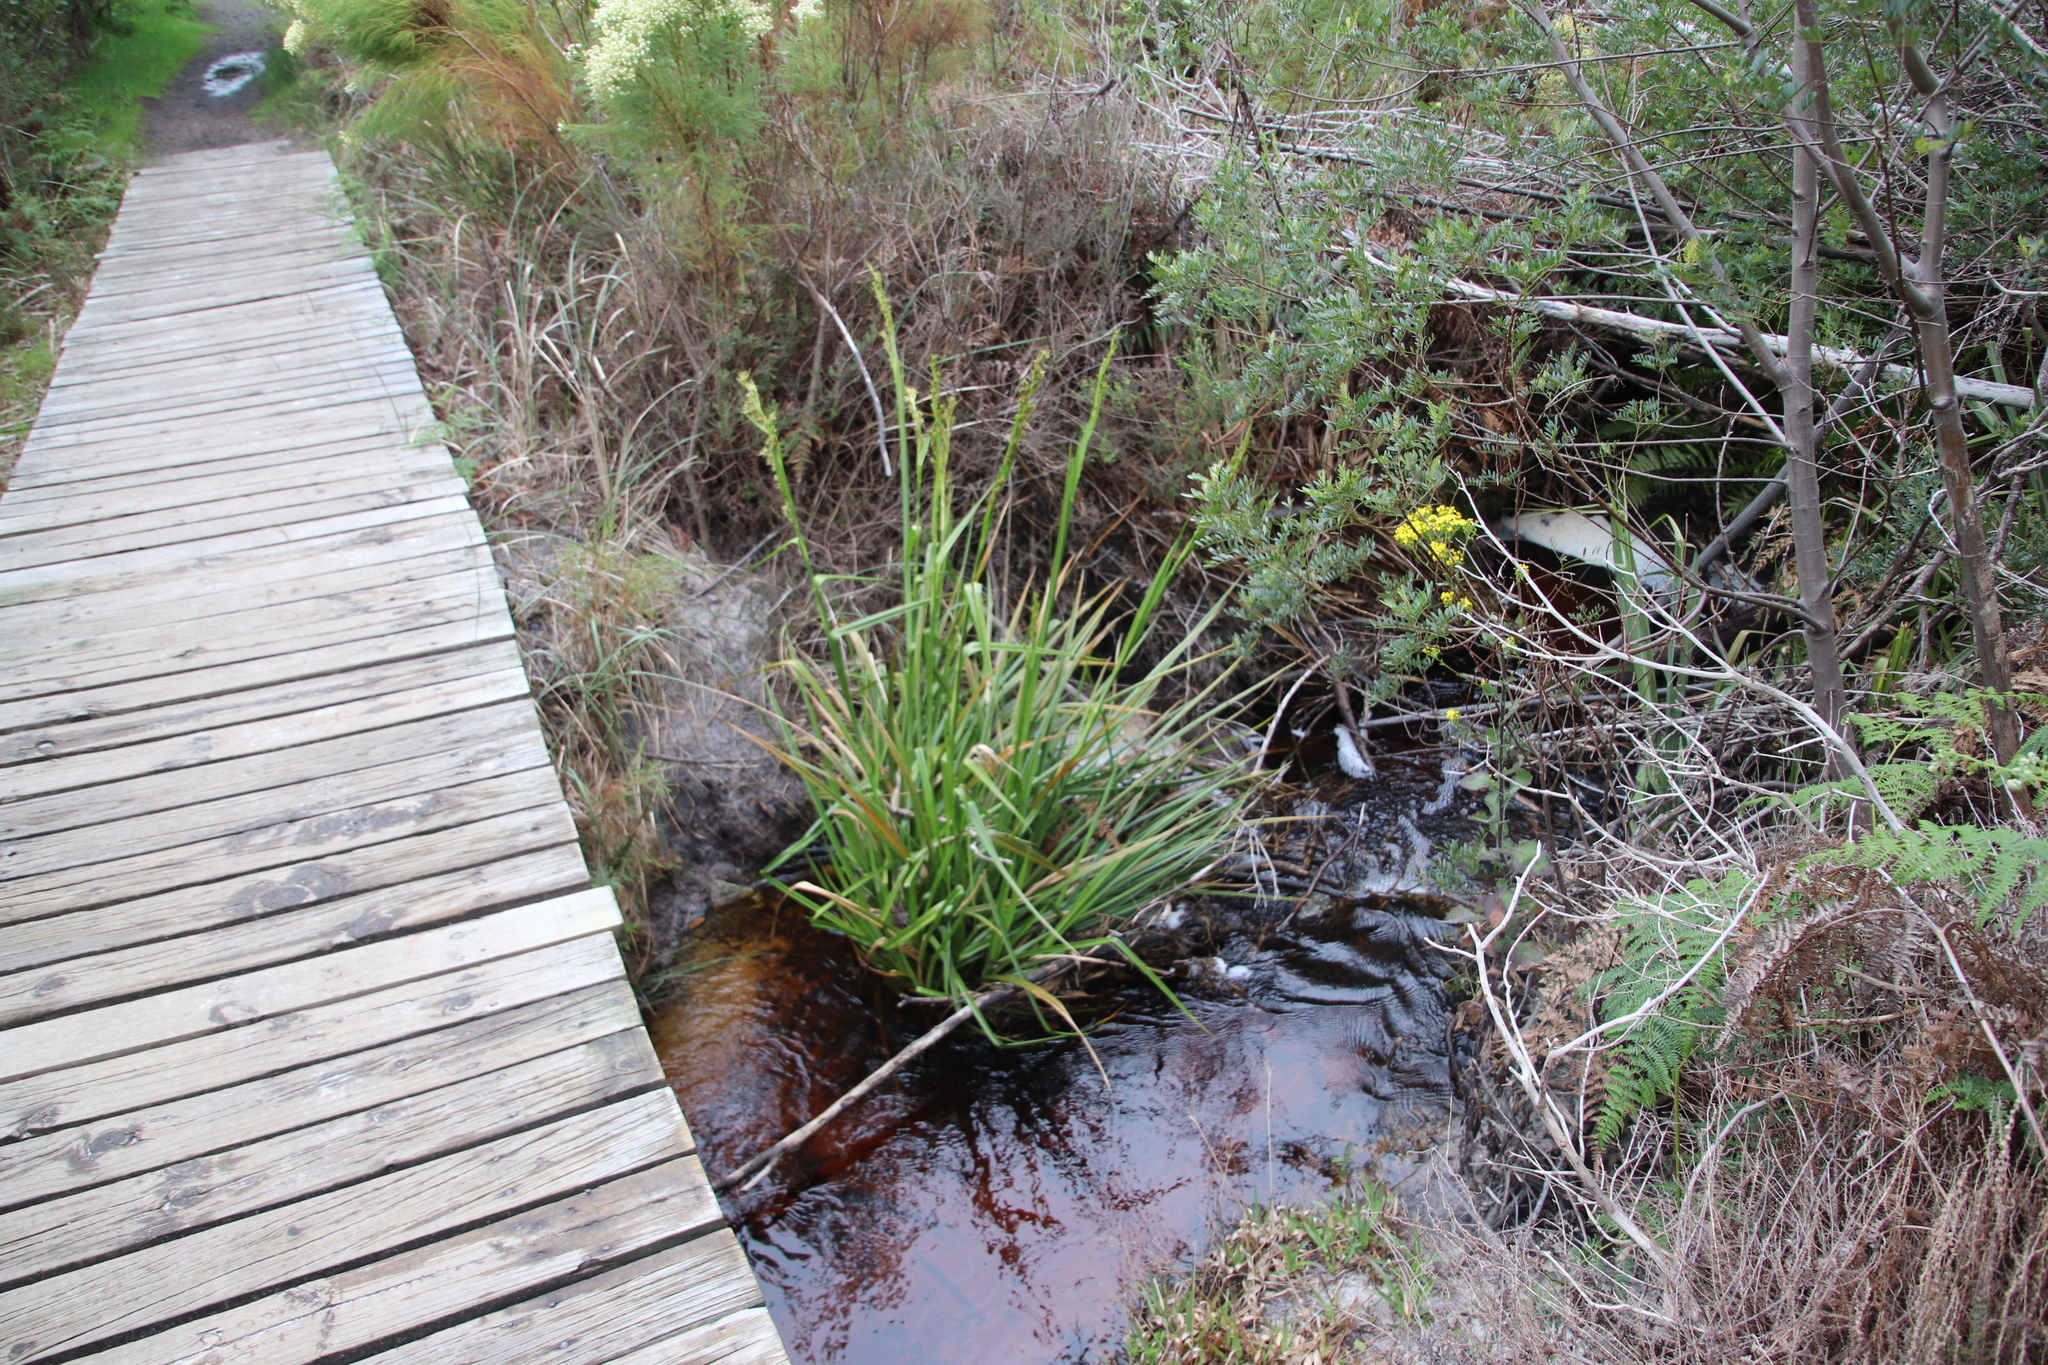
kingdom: Plantae
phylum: Tracheophyta
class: Liliopsida
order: Poales
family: Cyperaceae
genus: Carpha
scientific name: Carpha glomerata
